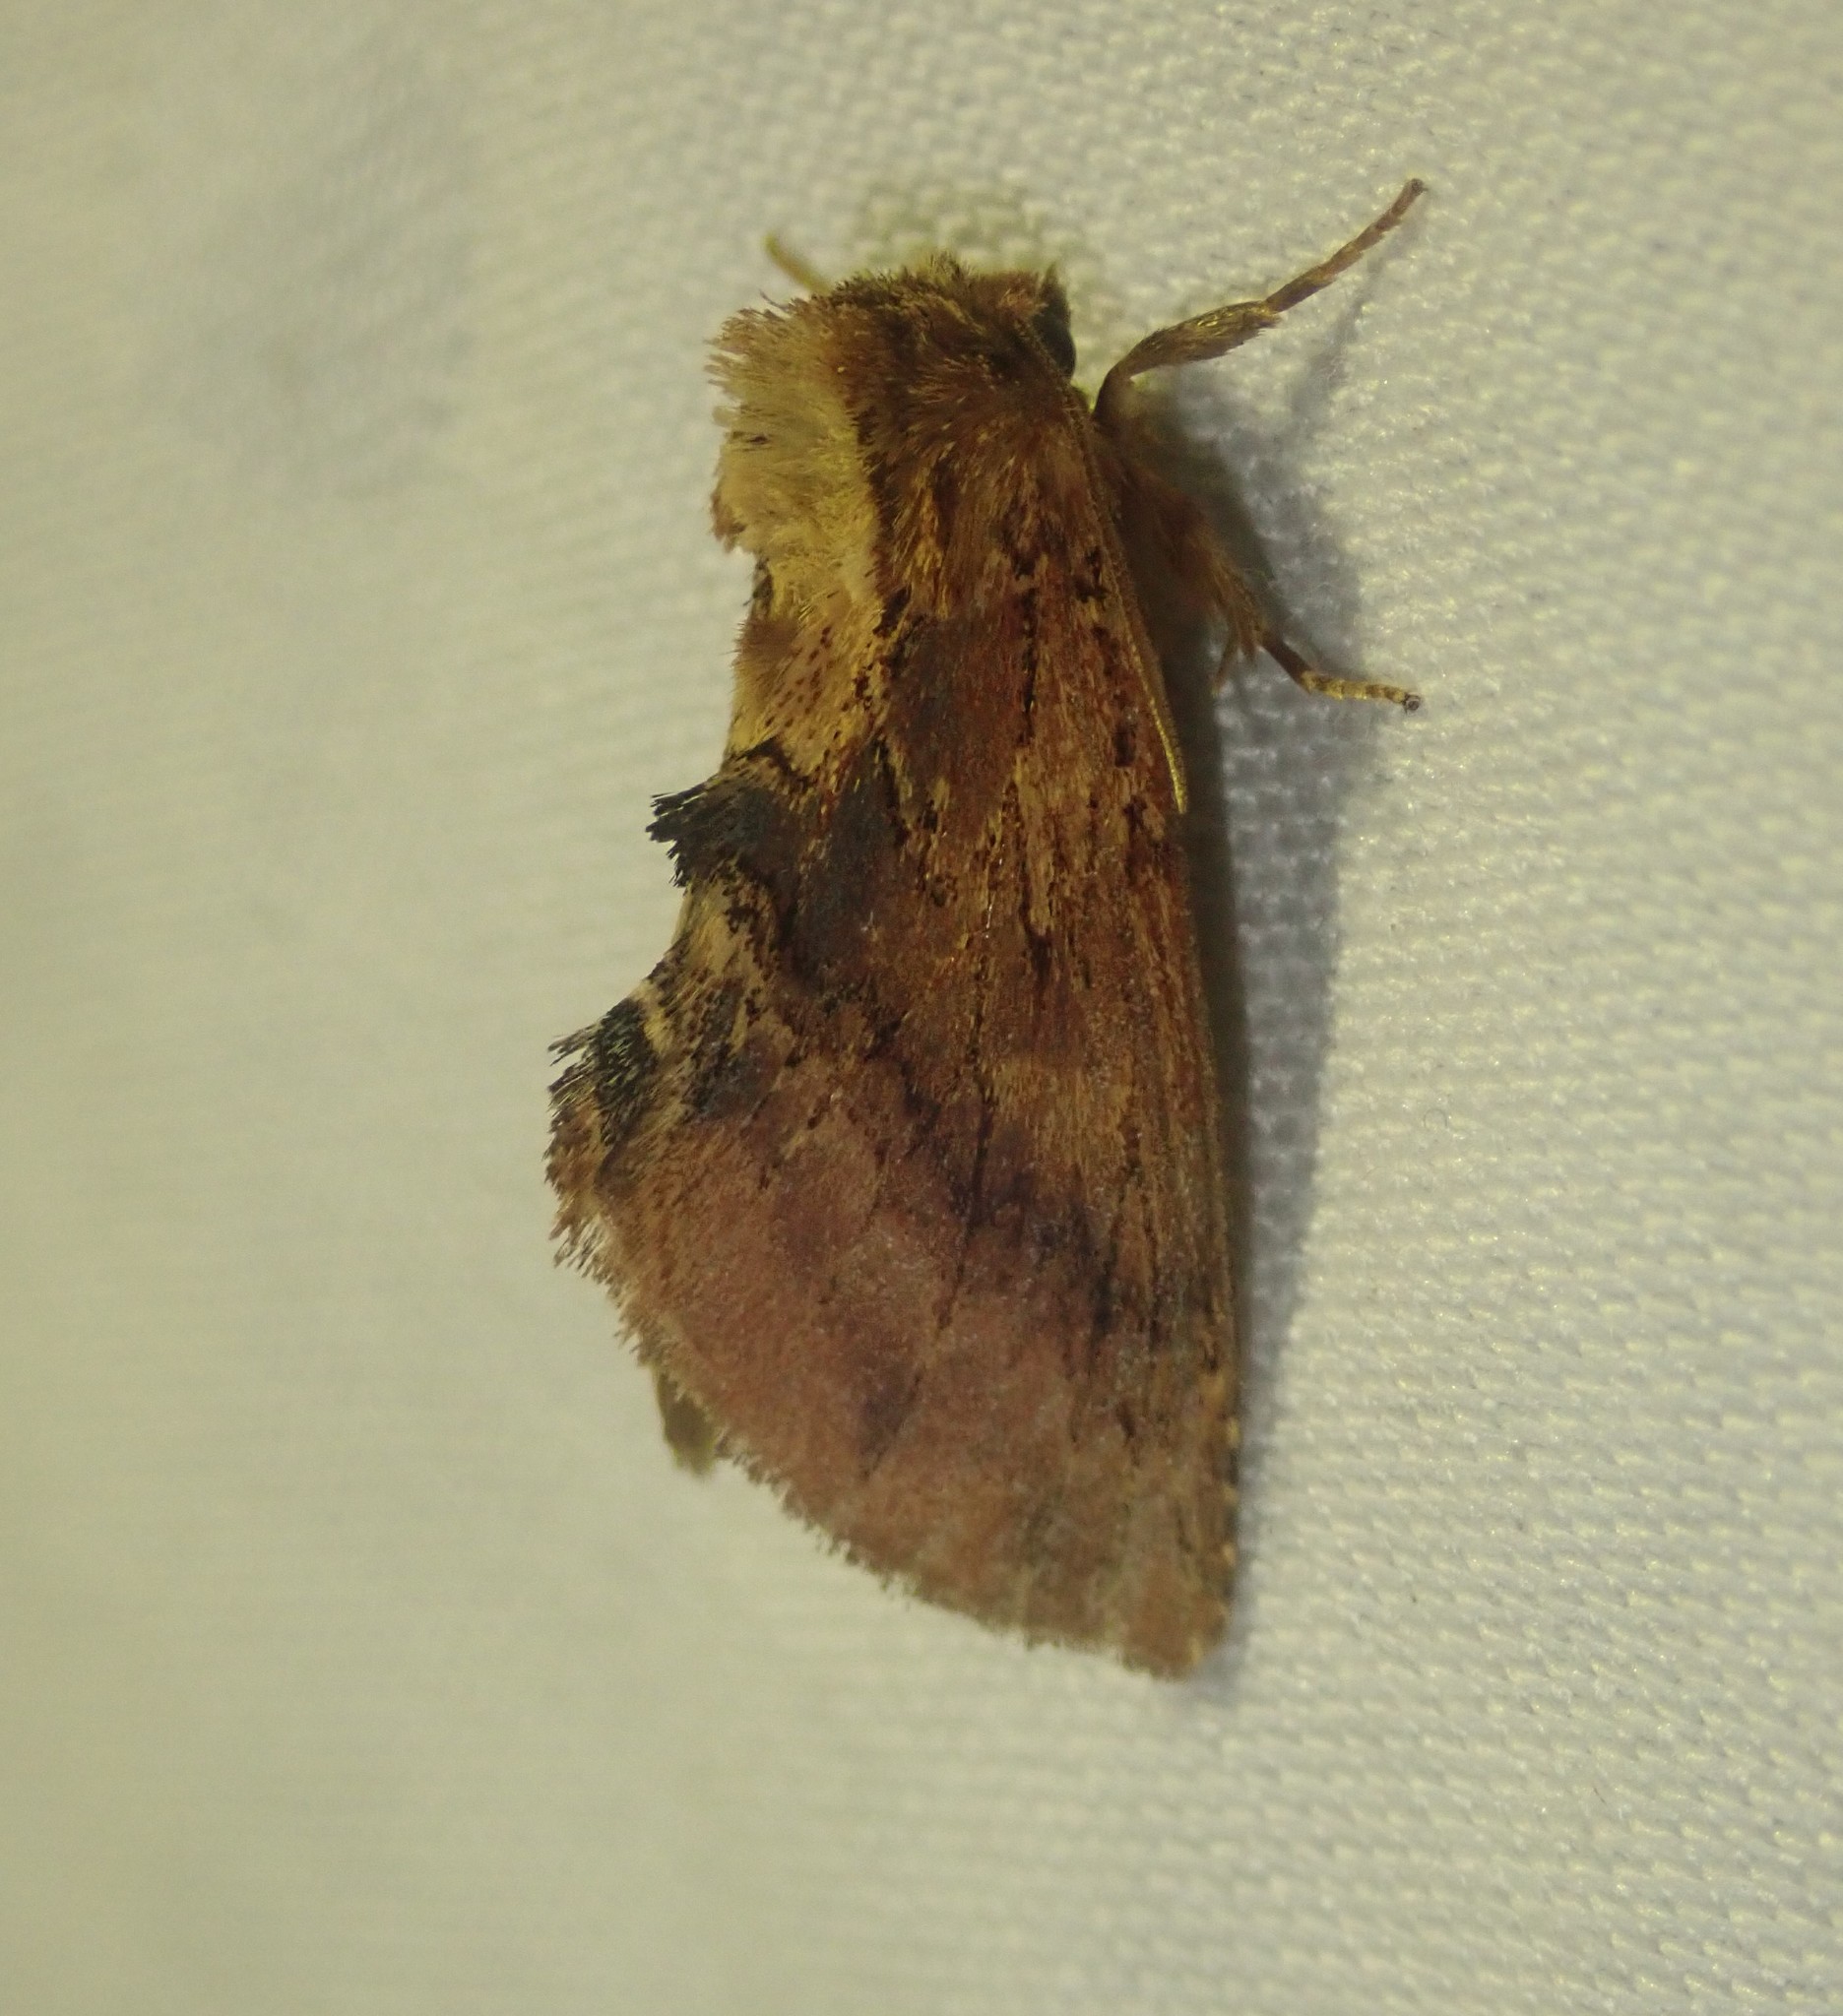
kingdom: Animalia
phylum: Arthropoda
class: Insecta
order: Lepidoptera
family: Notodontidae
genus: Ptilodon
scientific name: Ptilodon capucina
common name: Coxcomb prominent
